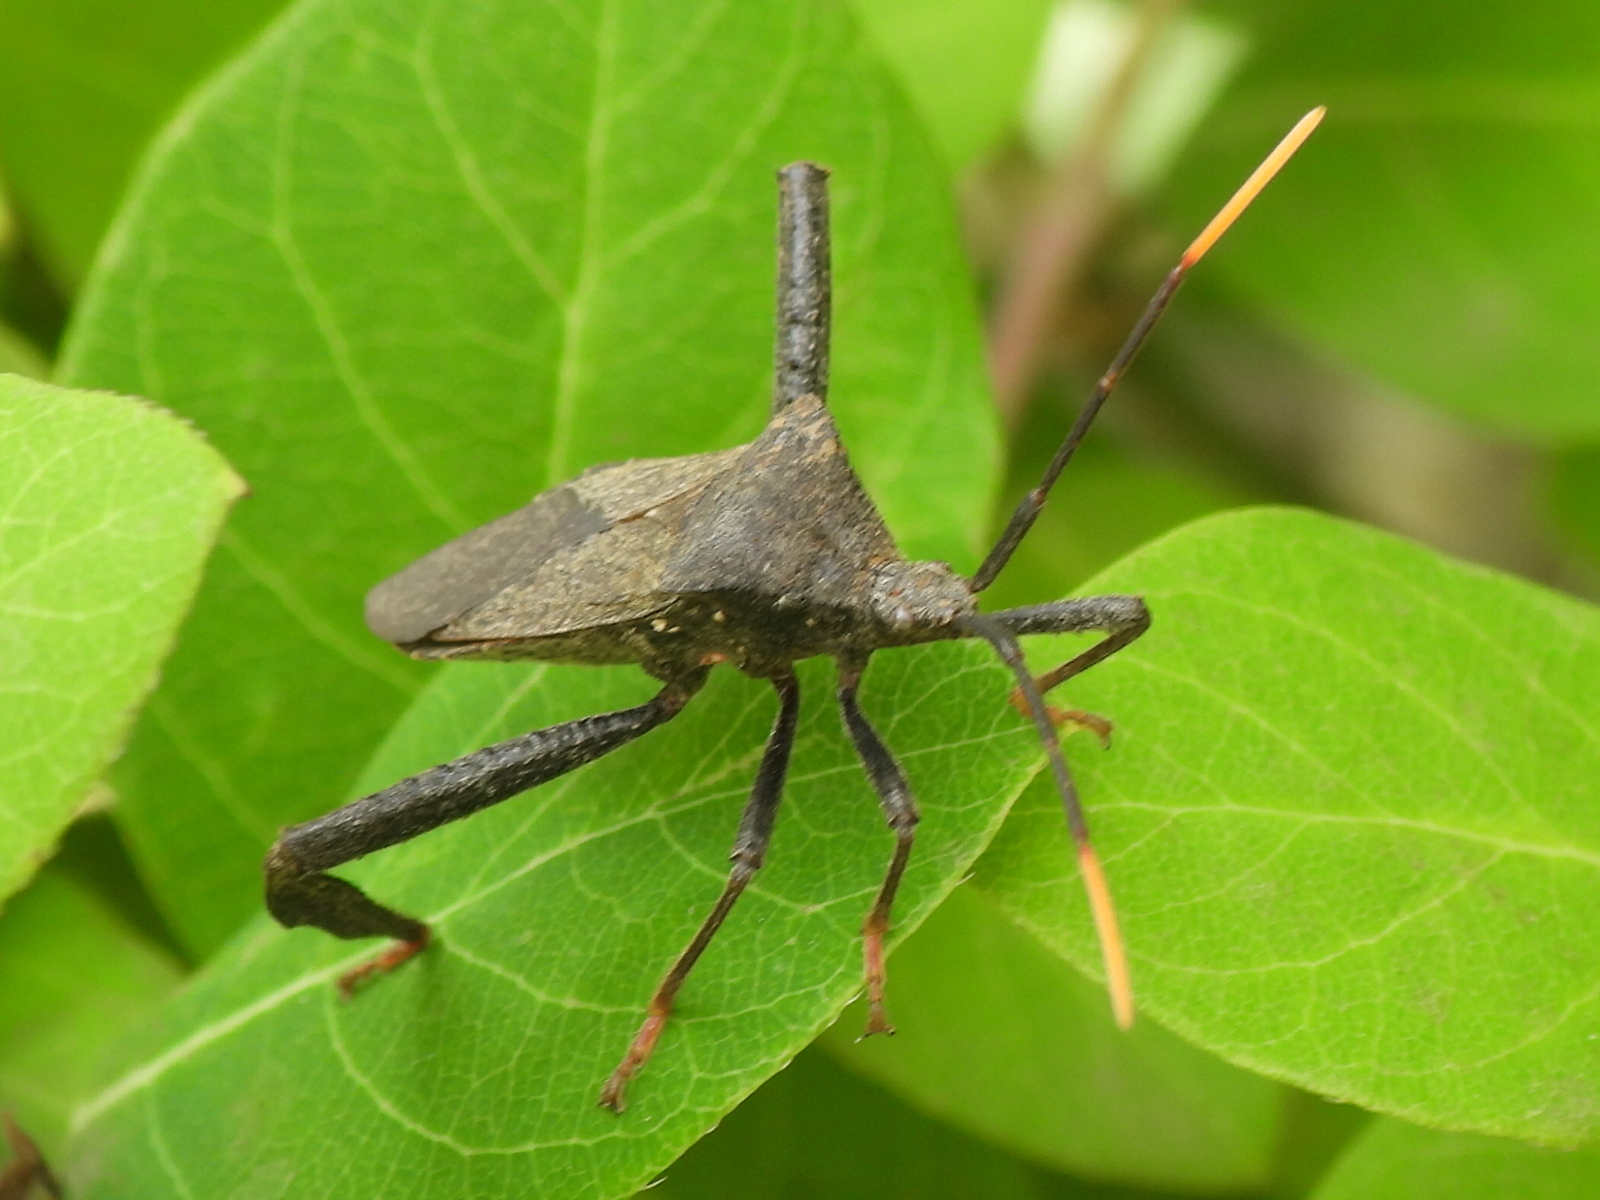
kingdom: Animalia
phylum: Arthropoda
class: Insecta
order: Hemiptera
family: Coreidae
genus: Acanthocephala
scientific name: Acanthocephala terminalis
